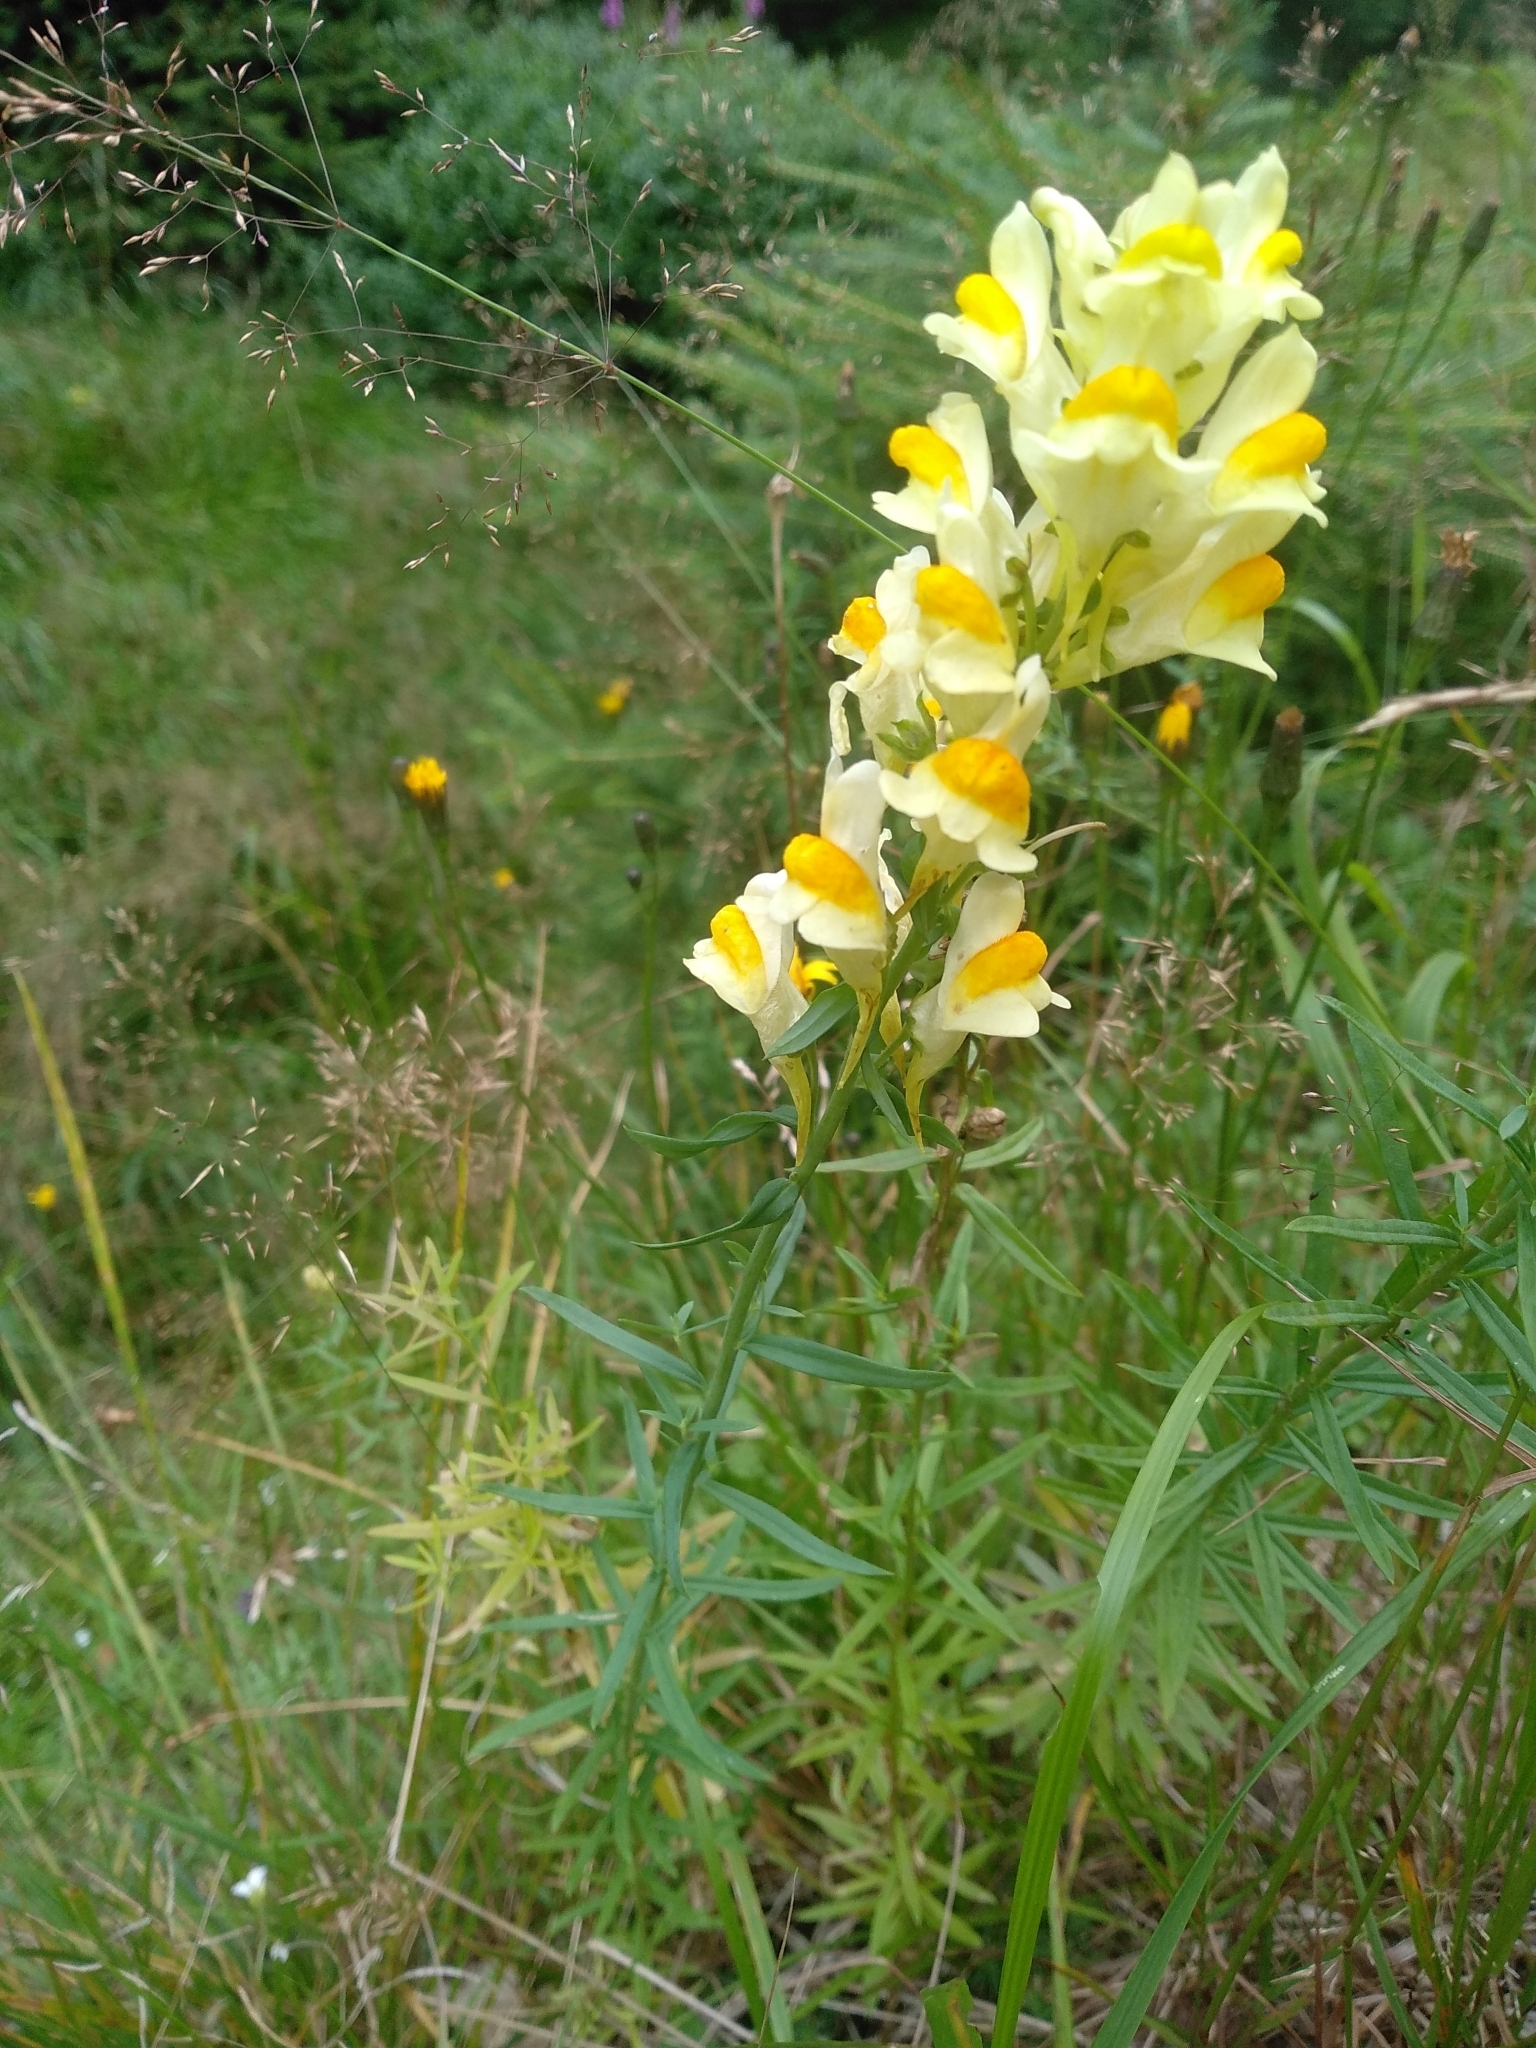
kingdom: Plantae
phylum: Tracheophyta
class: Magnoliopsida
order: Lamiales
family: Plantaginaceae
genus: Linaria
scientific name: Linaria vulgaris
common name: Butter and eggs
